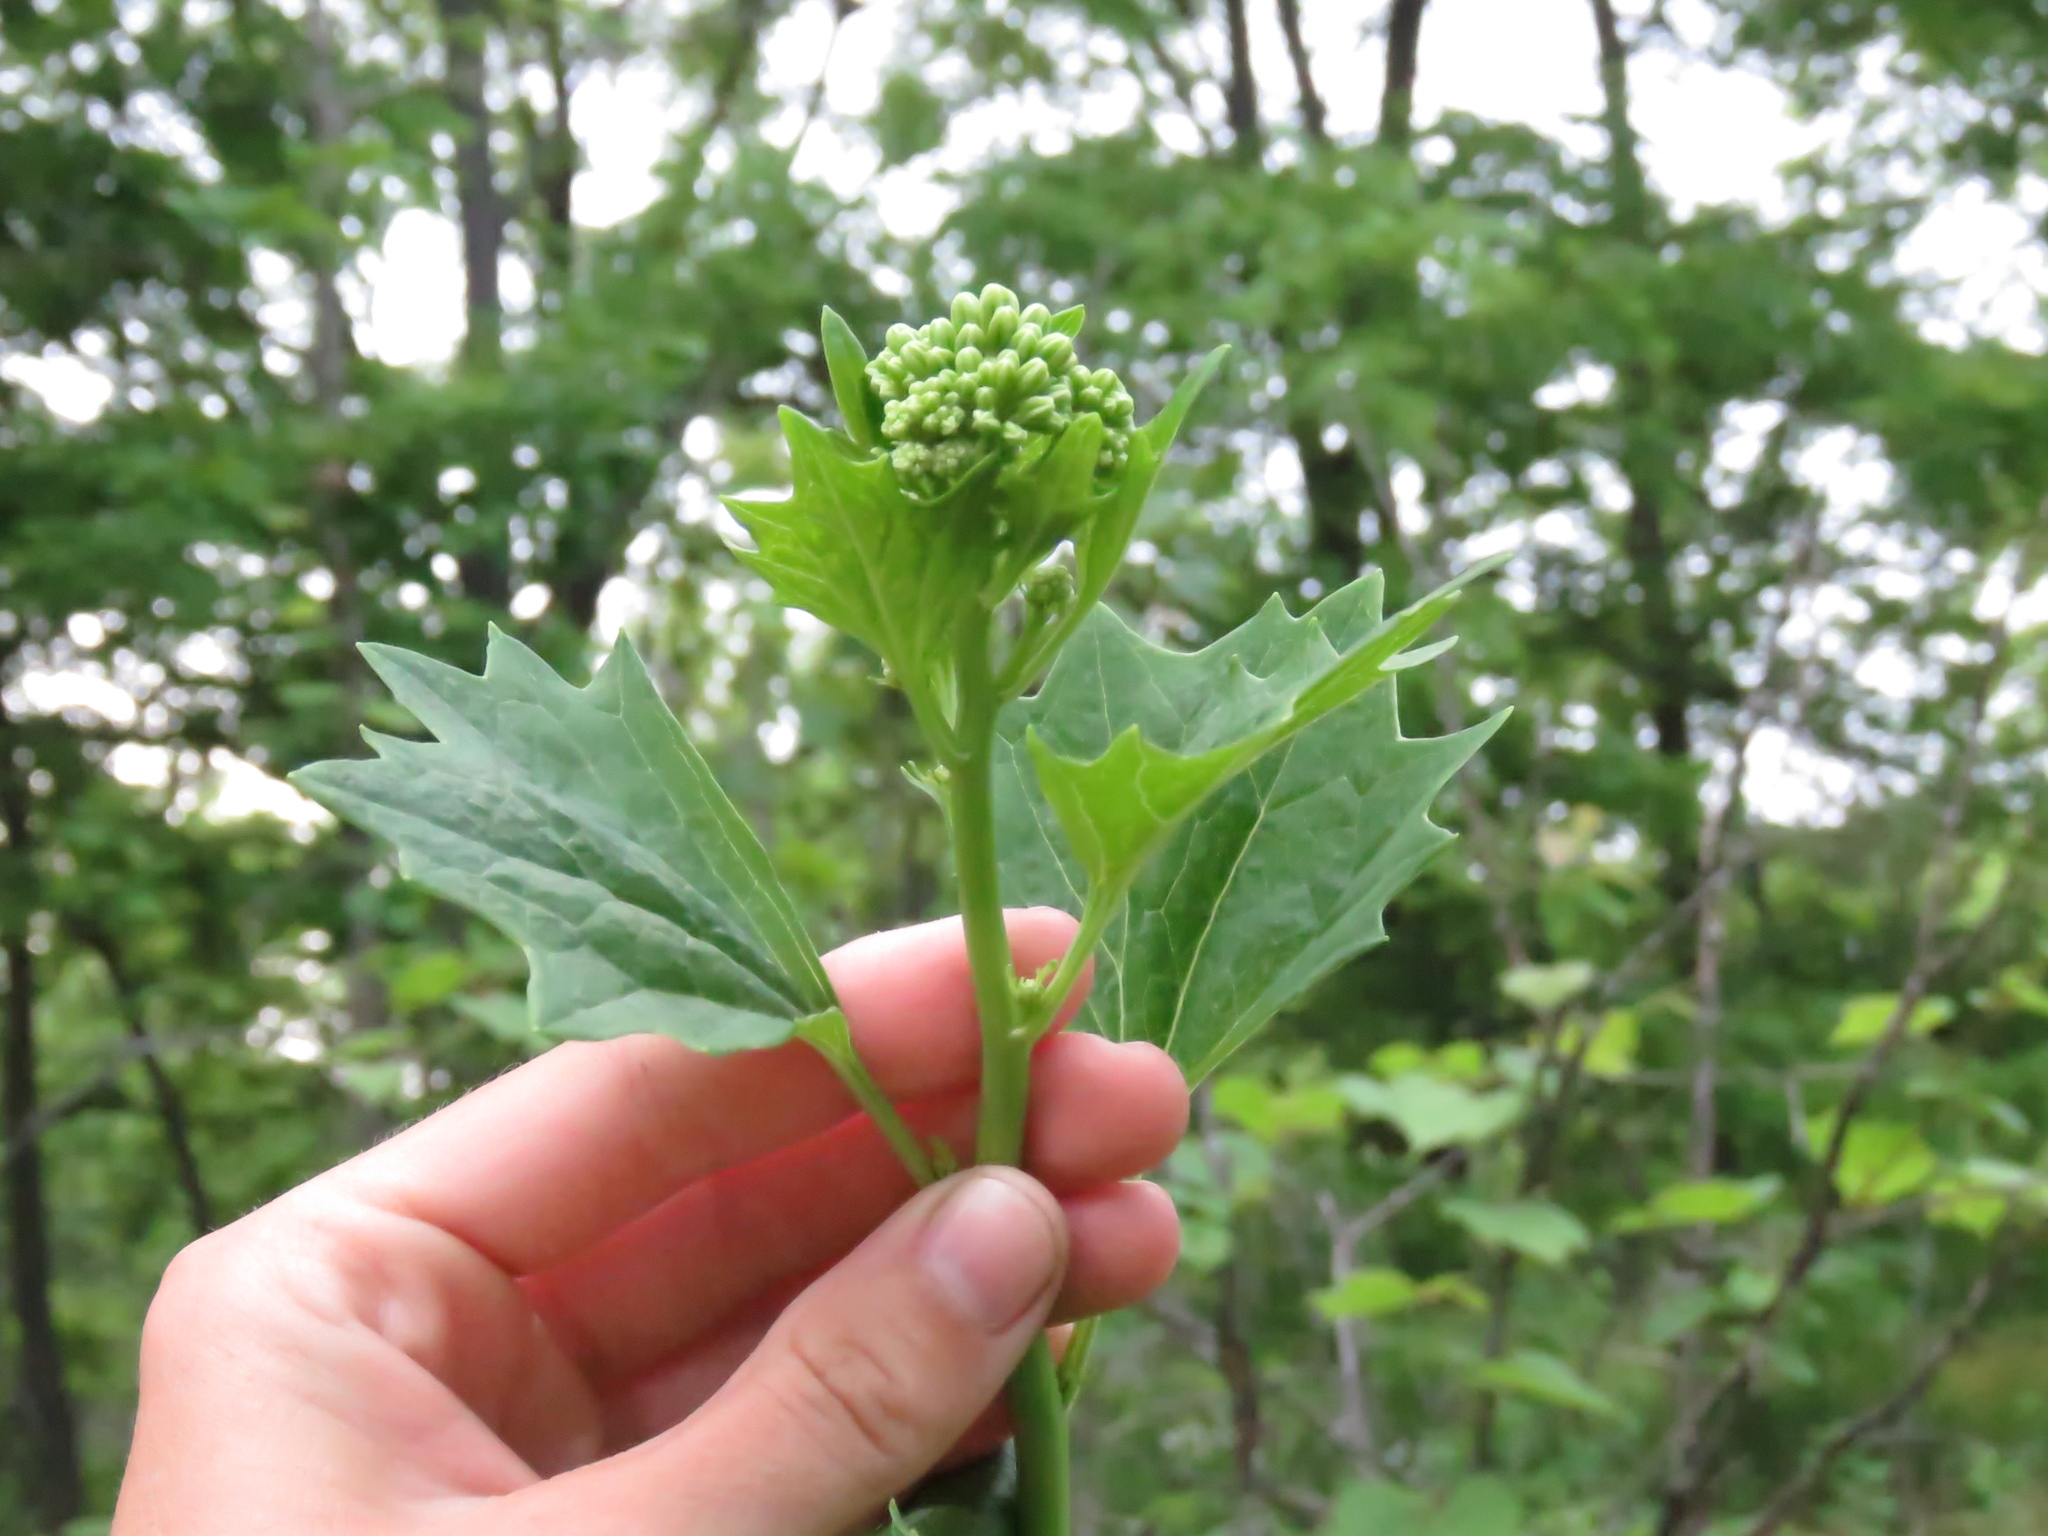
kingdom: Plantae
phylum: Tracheophyta
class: Magnoliopsida
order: Asterales
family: Asteraceae
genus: Arnoglossum
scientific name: Arnoglossum atriplicifolium
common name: Pale indian-plantain
